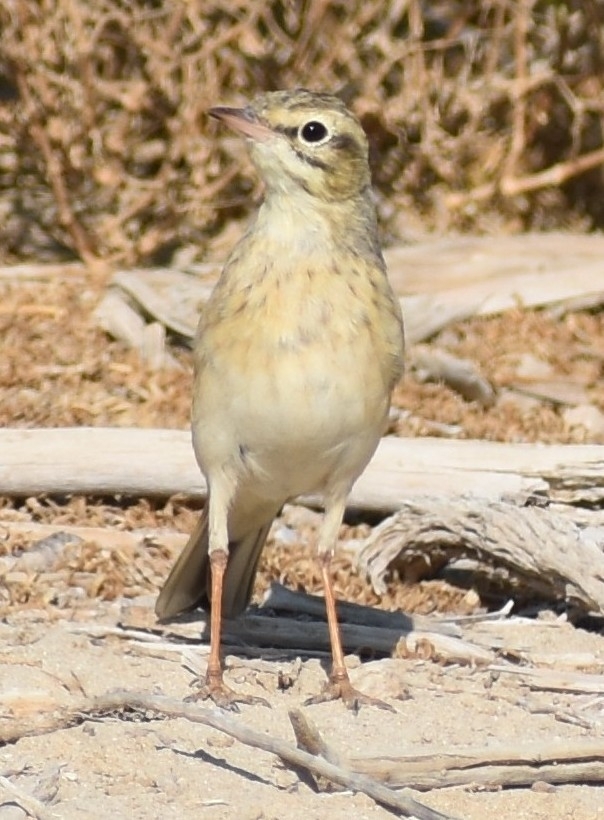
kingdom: Animalia
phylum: Chordata
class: Aves
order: Passeriformes
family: Motacillidae
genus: Anthus
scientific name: Anthus campestris
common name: Tawny pipit
